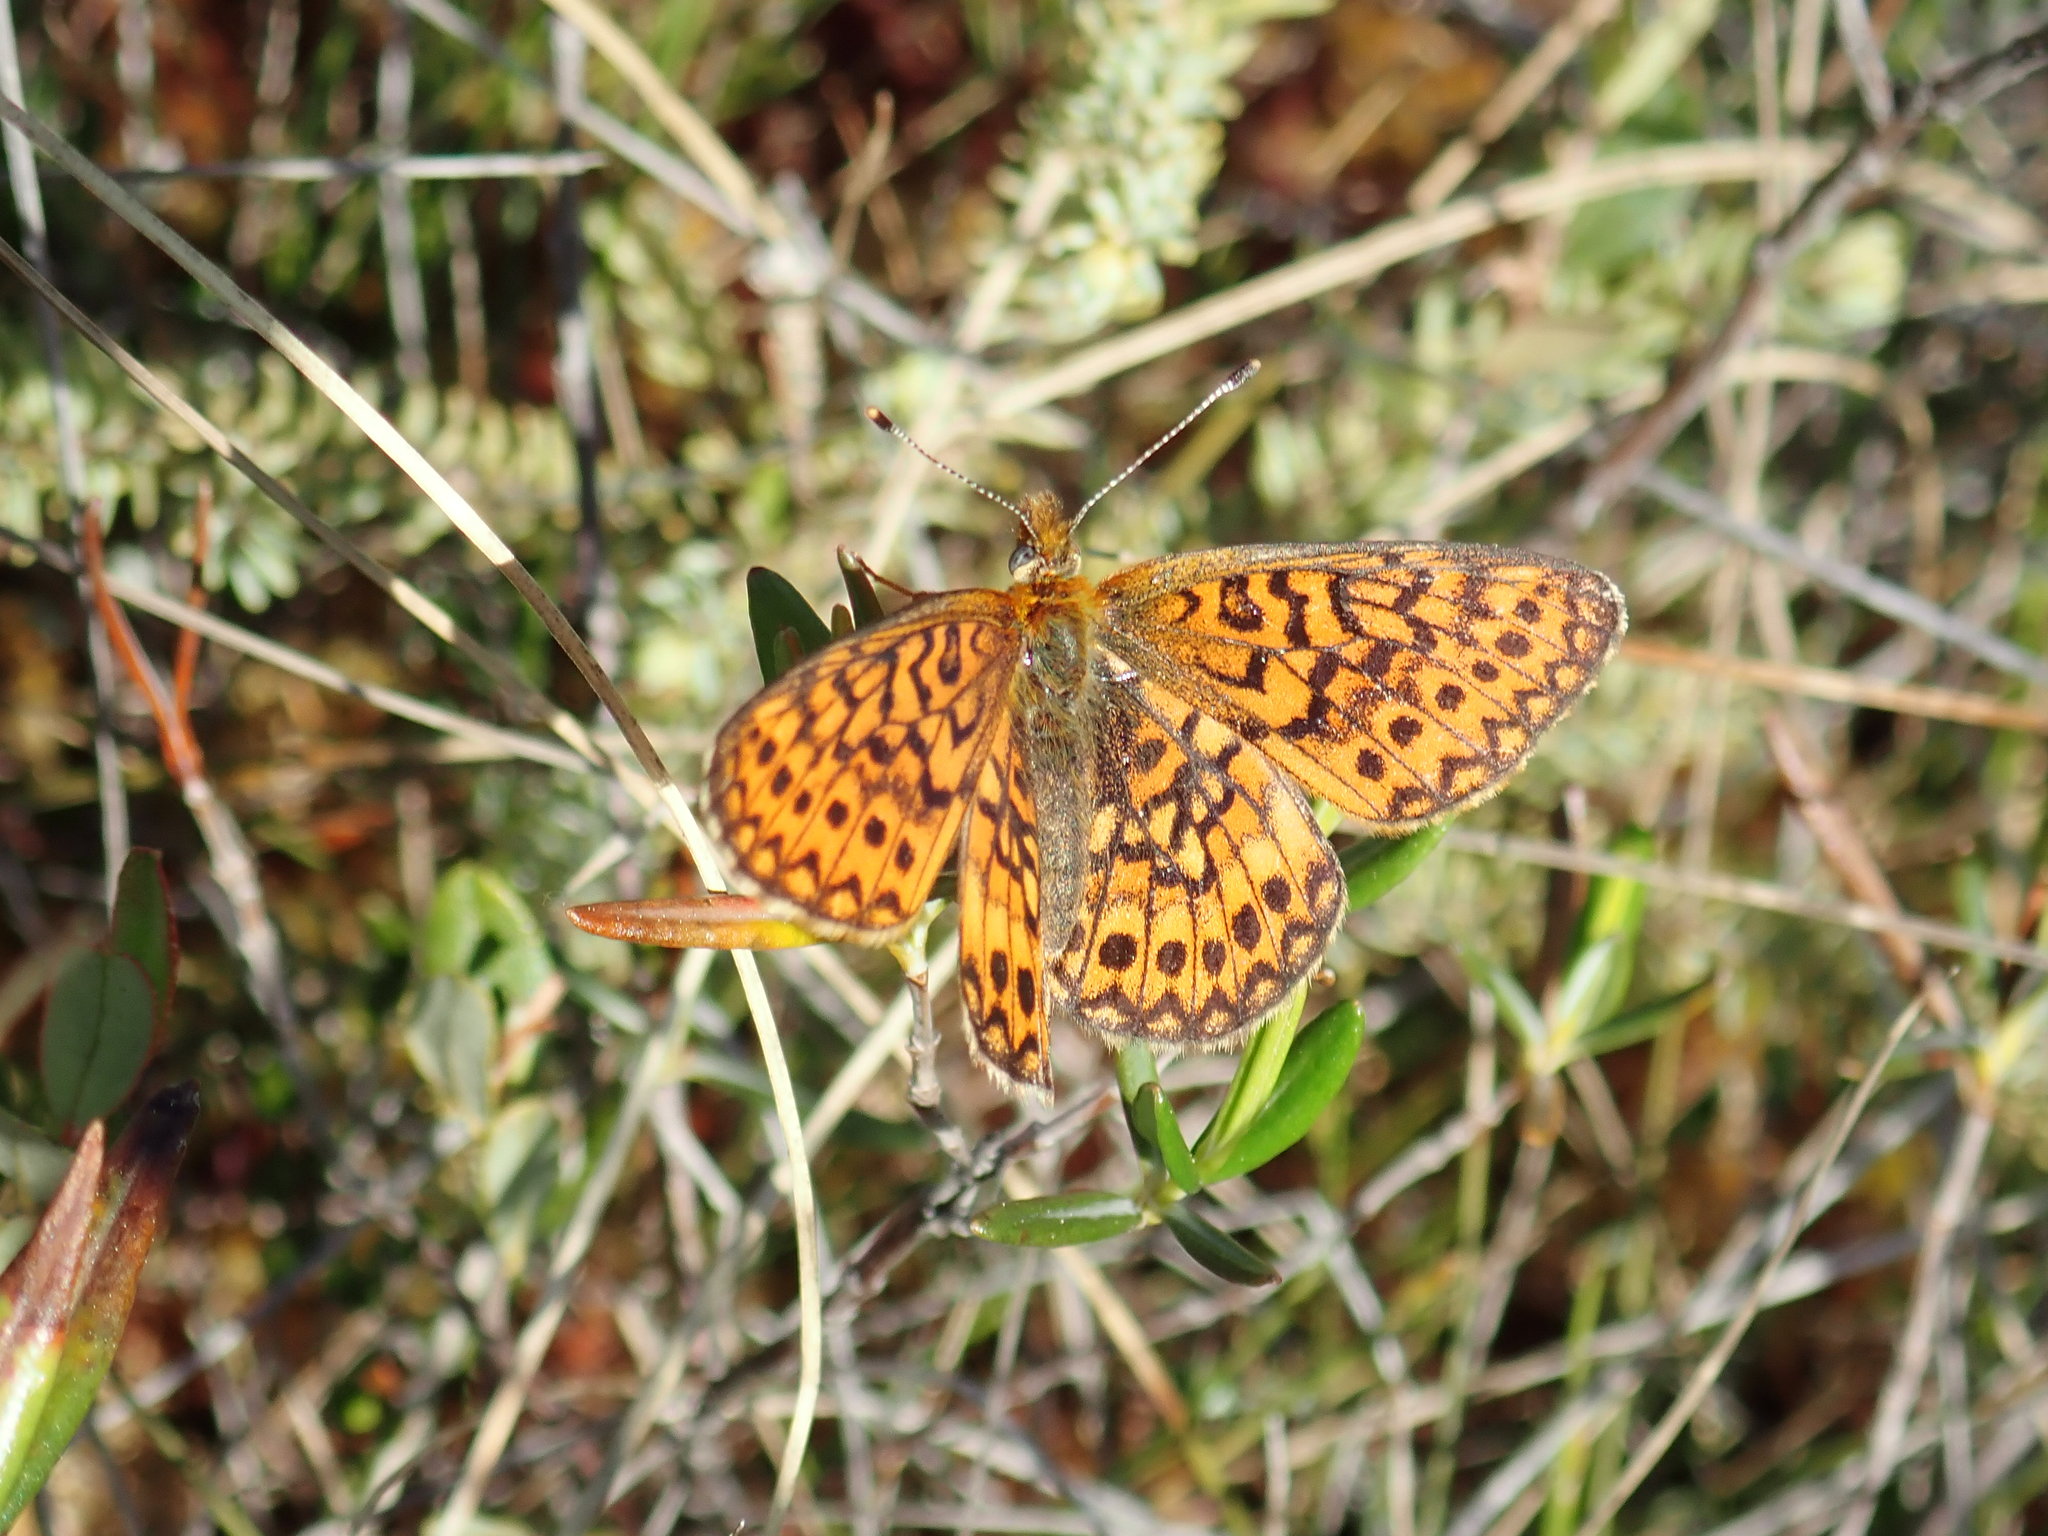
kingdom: Animalia
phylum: Arthropoda
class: Insecta
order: Lepidoptera
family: Nymphalidae
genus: Boloria
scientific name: Boloria eunomia
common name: Bog fritillary
